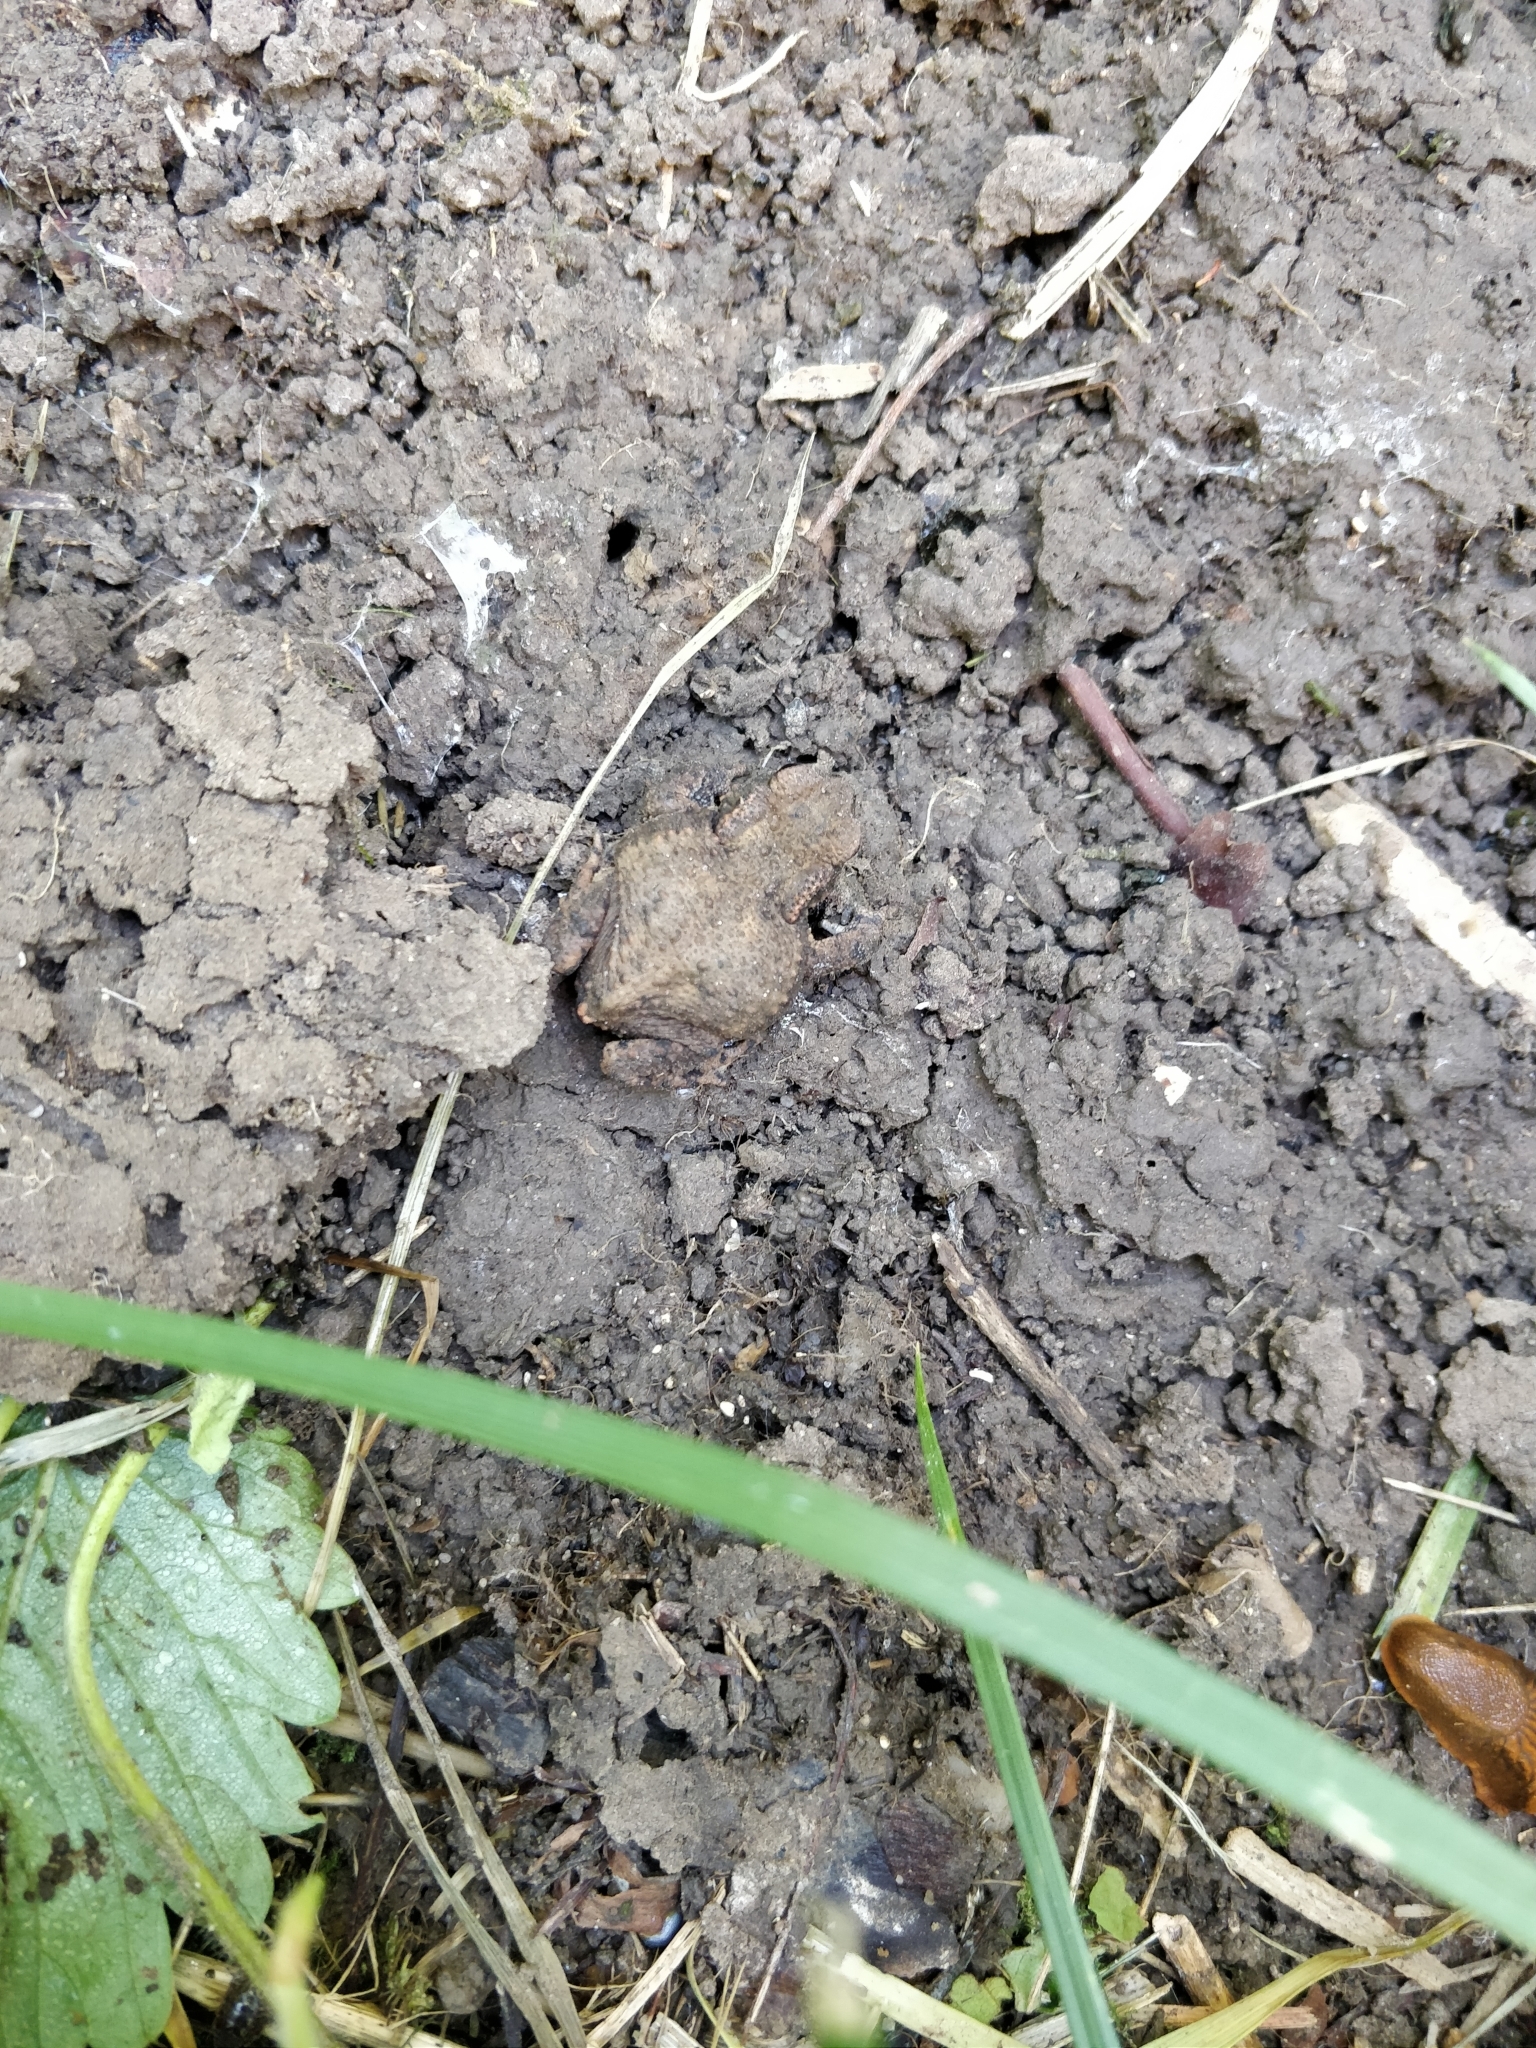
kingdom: Animalia
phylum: Chordata
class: Amphibia
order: Anura
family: Bufonidae
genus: Bufo
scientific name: Bufo bufo
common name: Common toad
